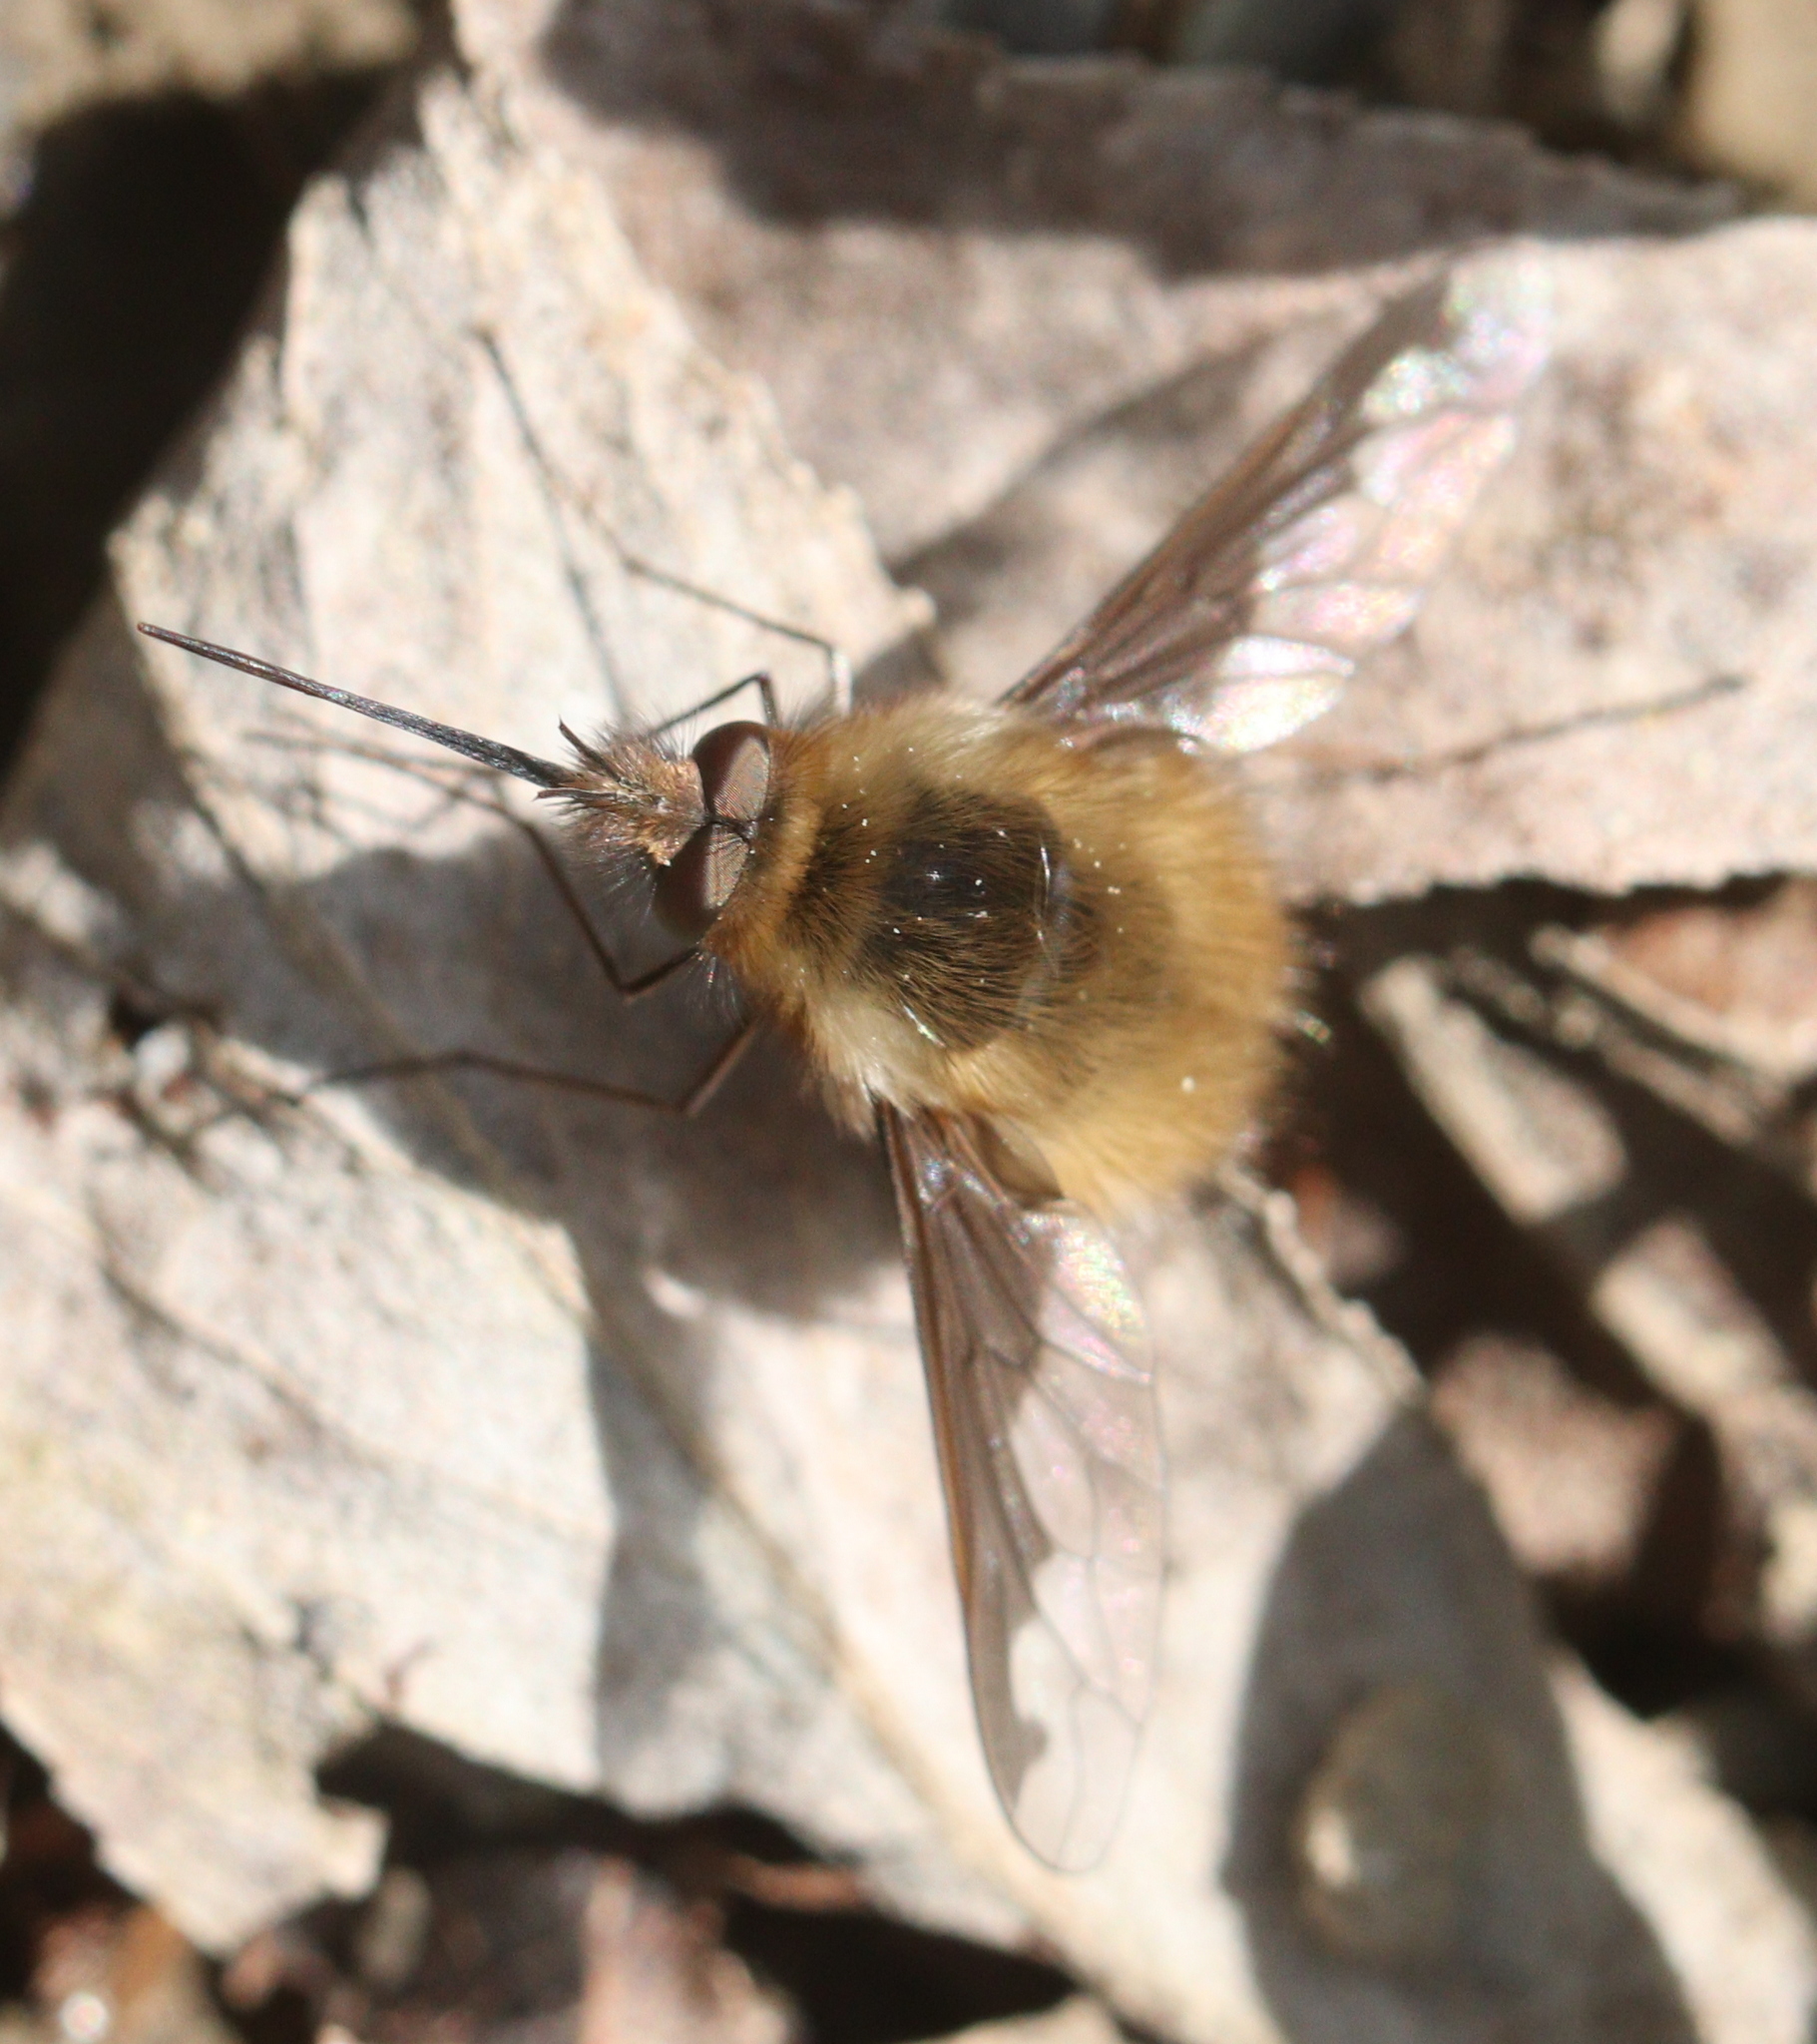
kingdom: Animalia
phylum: Arthropoda
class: Insecta
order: Diptera
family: Bombyliidae
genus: Bombylius
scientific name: Bombylius major
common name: Bee fly
